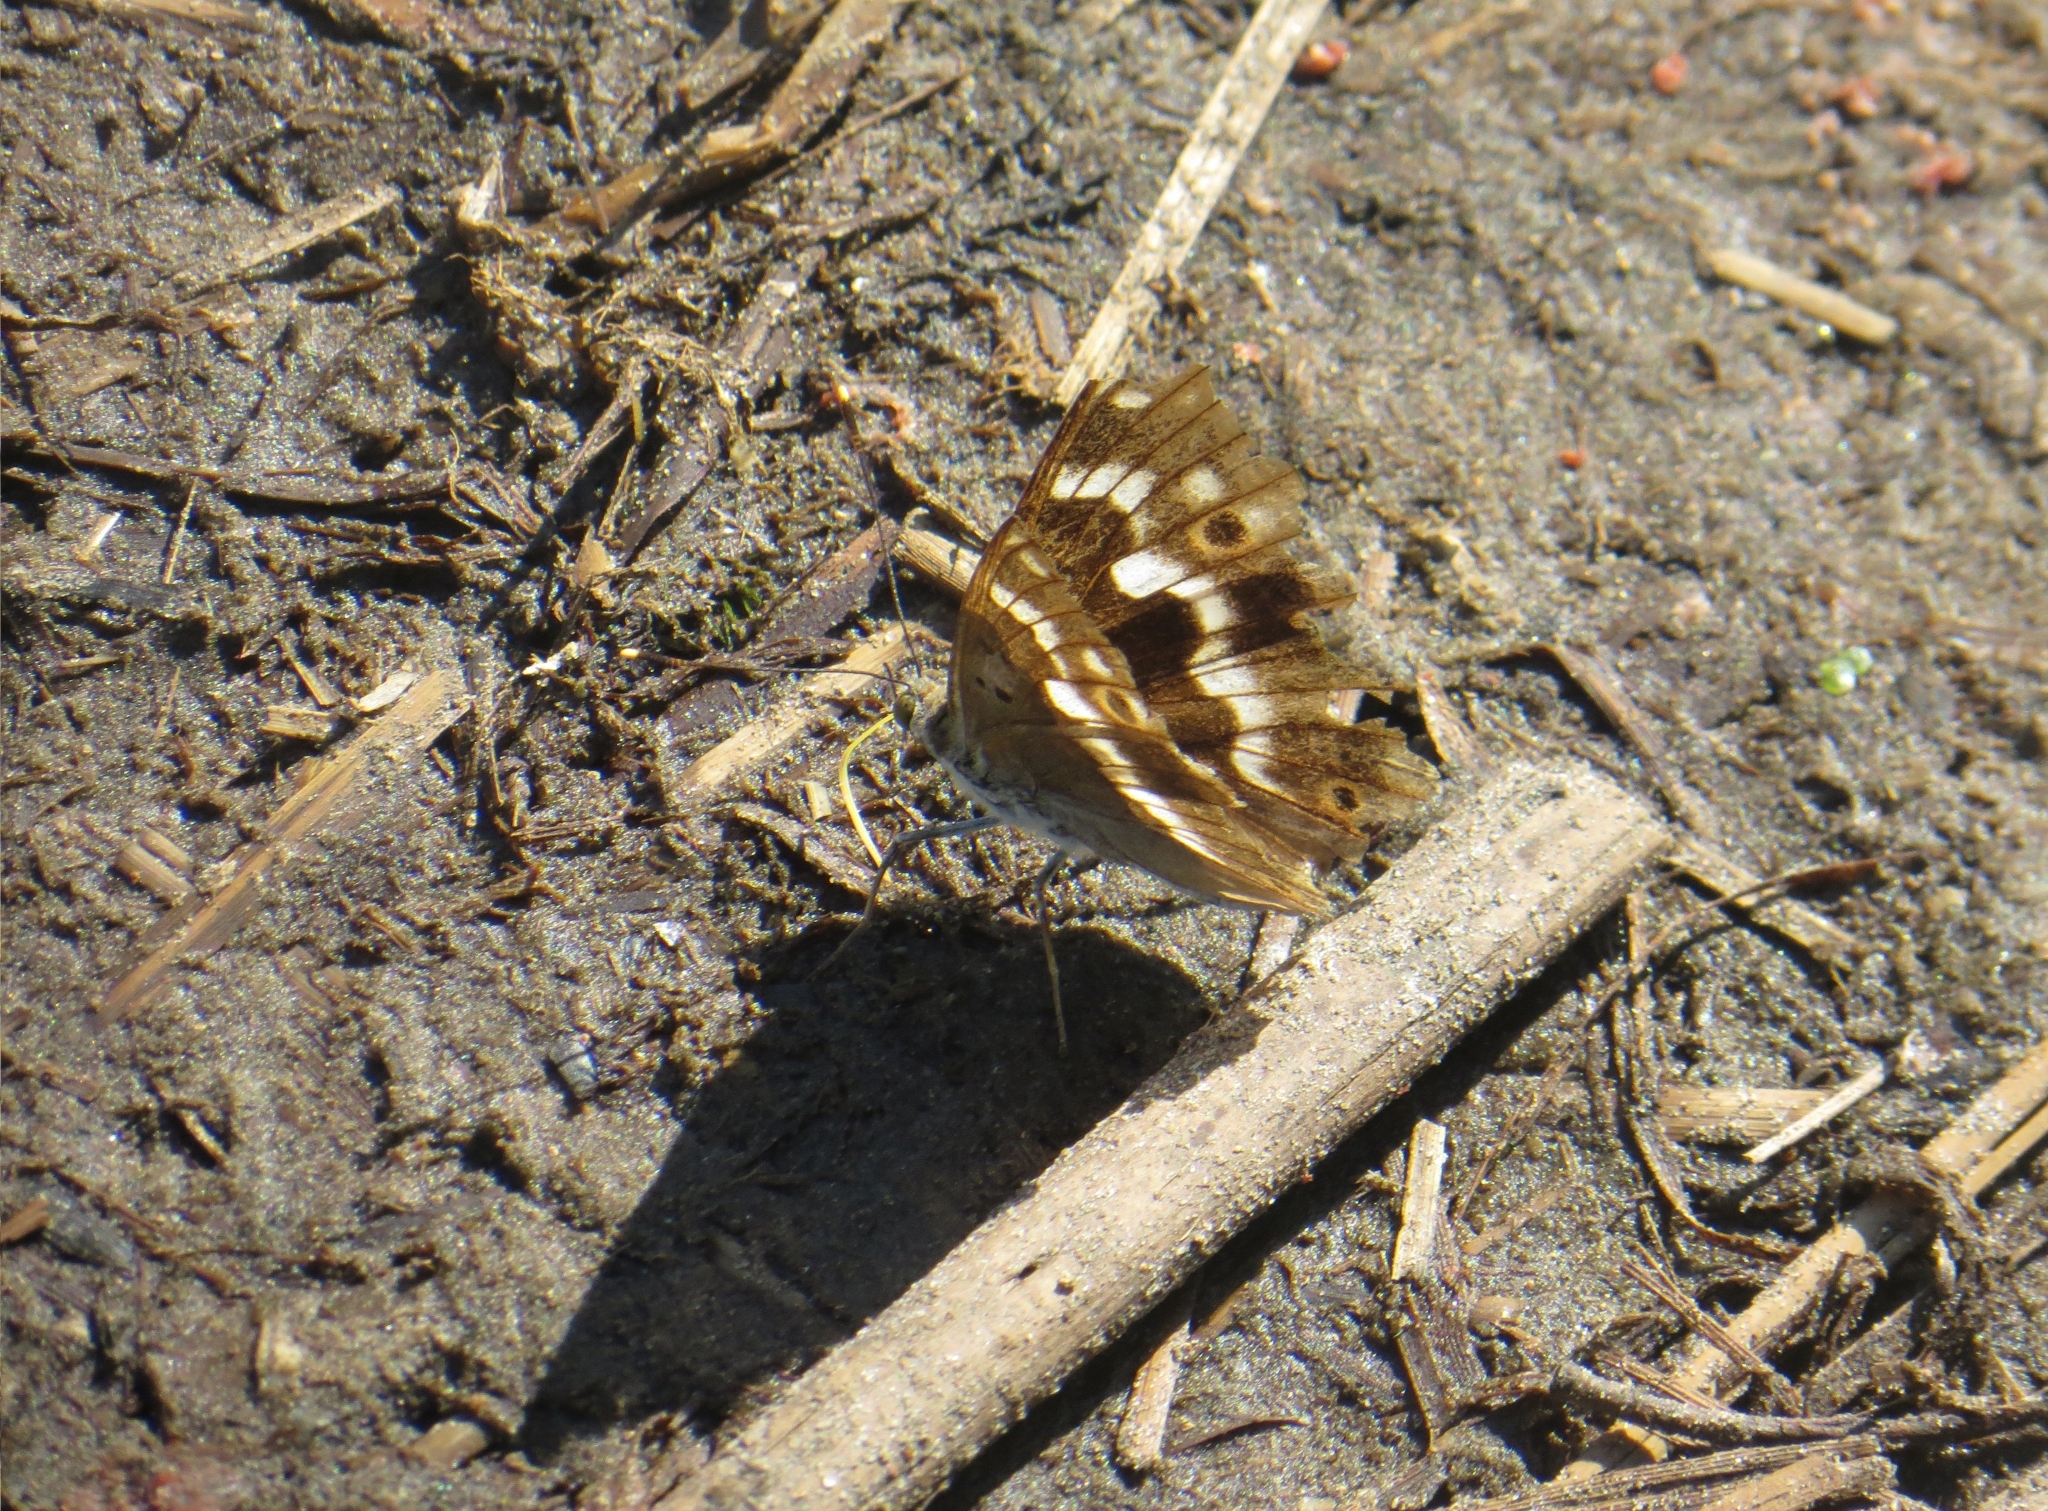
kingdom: Animalia
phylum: Arthropoda
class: Insecta
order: Lepidoptera
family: Nymphalidae
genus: Apatura
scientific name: Apatura ilia
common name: Lesser purple emperor
